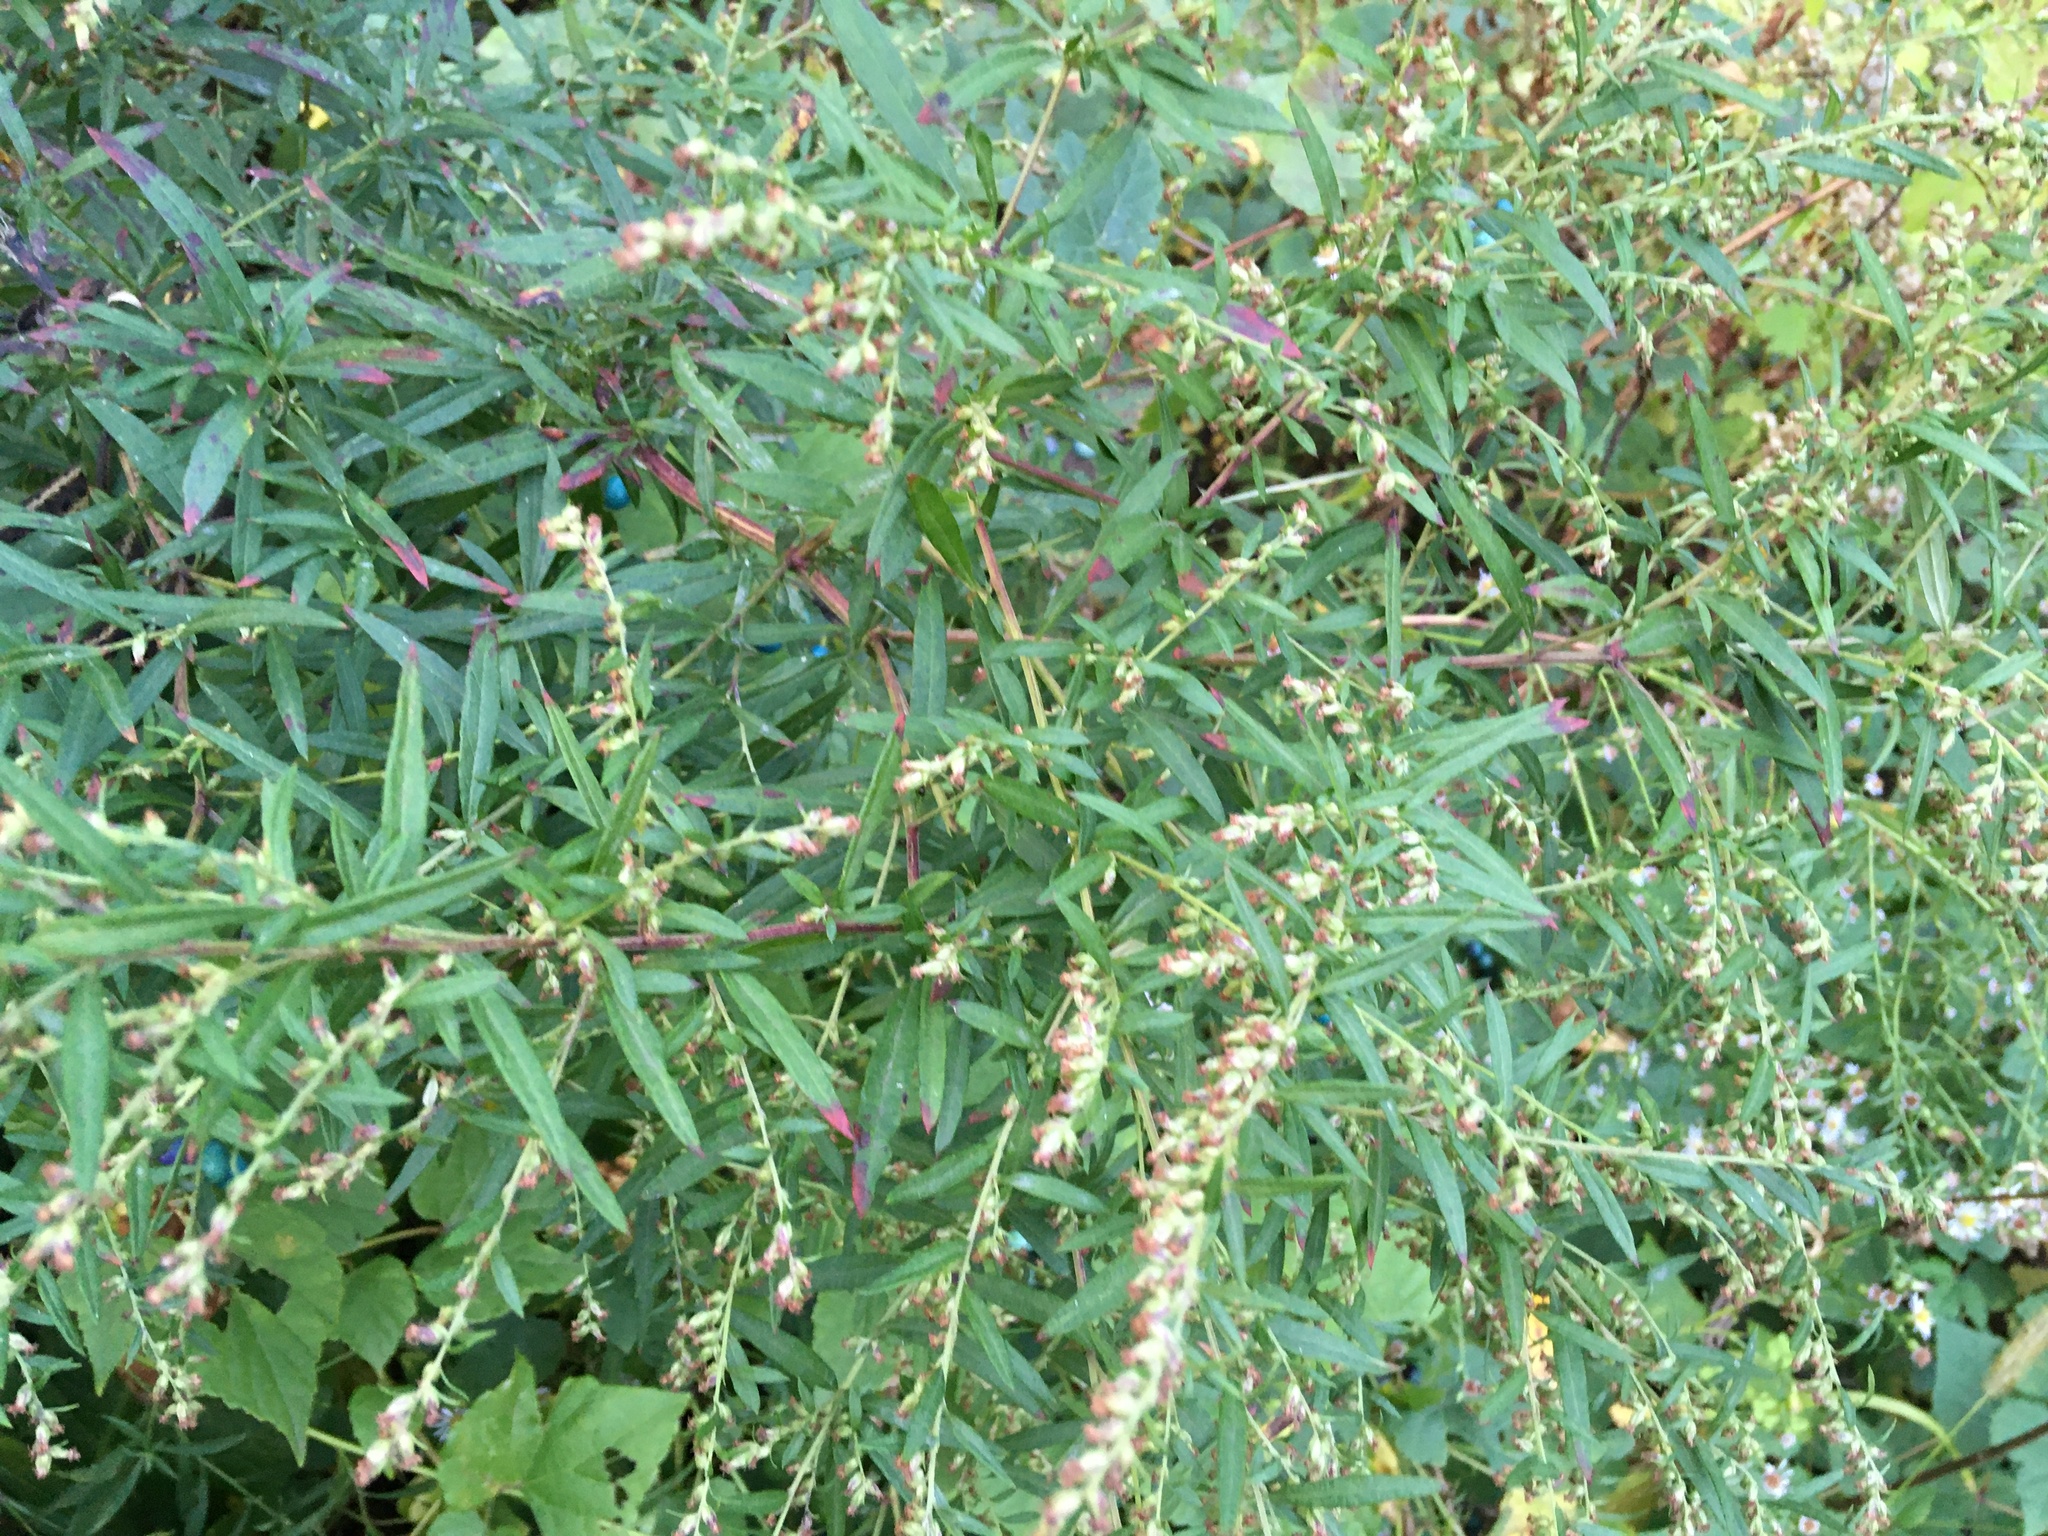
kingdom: Plantae
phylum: Tracheophyta
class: Magnoliopsida
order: Asterales
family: Asteraceae
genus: Artemisia
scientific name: Artemisia vulgaris
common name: Mugwort
